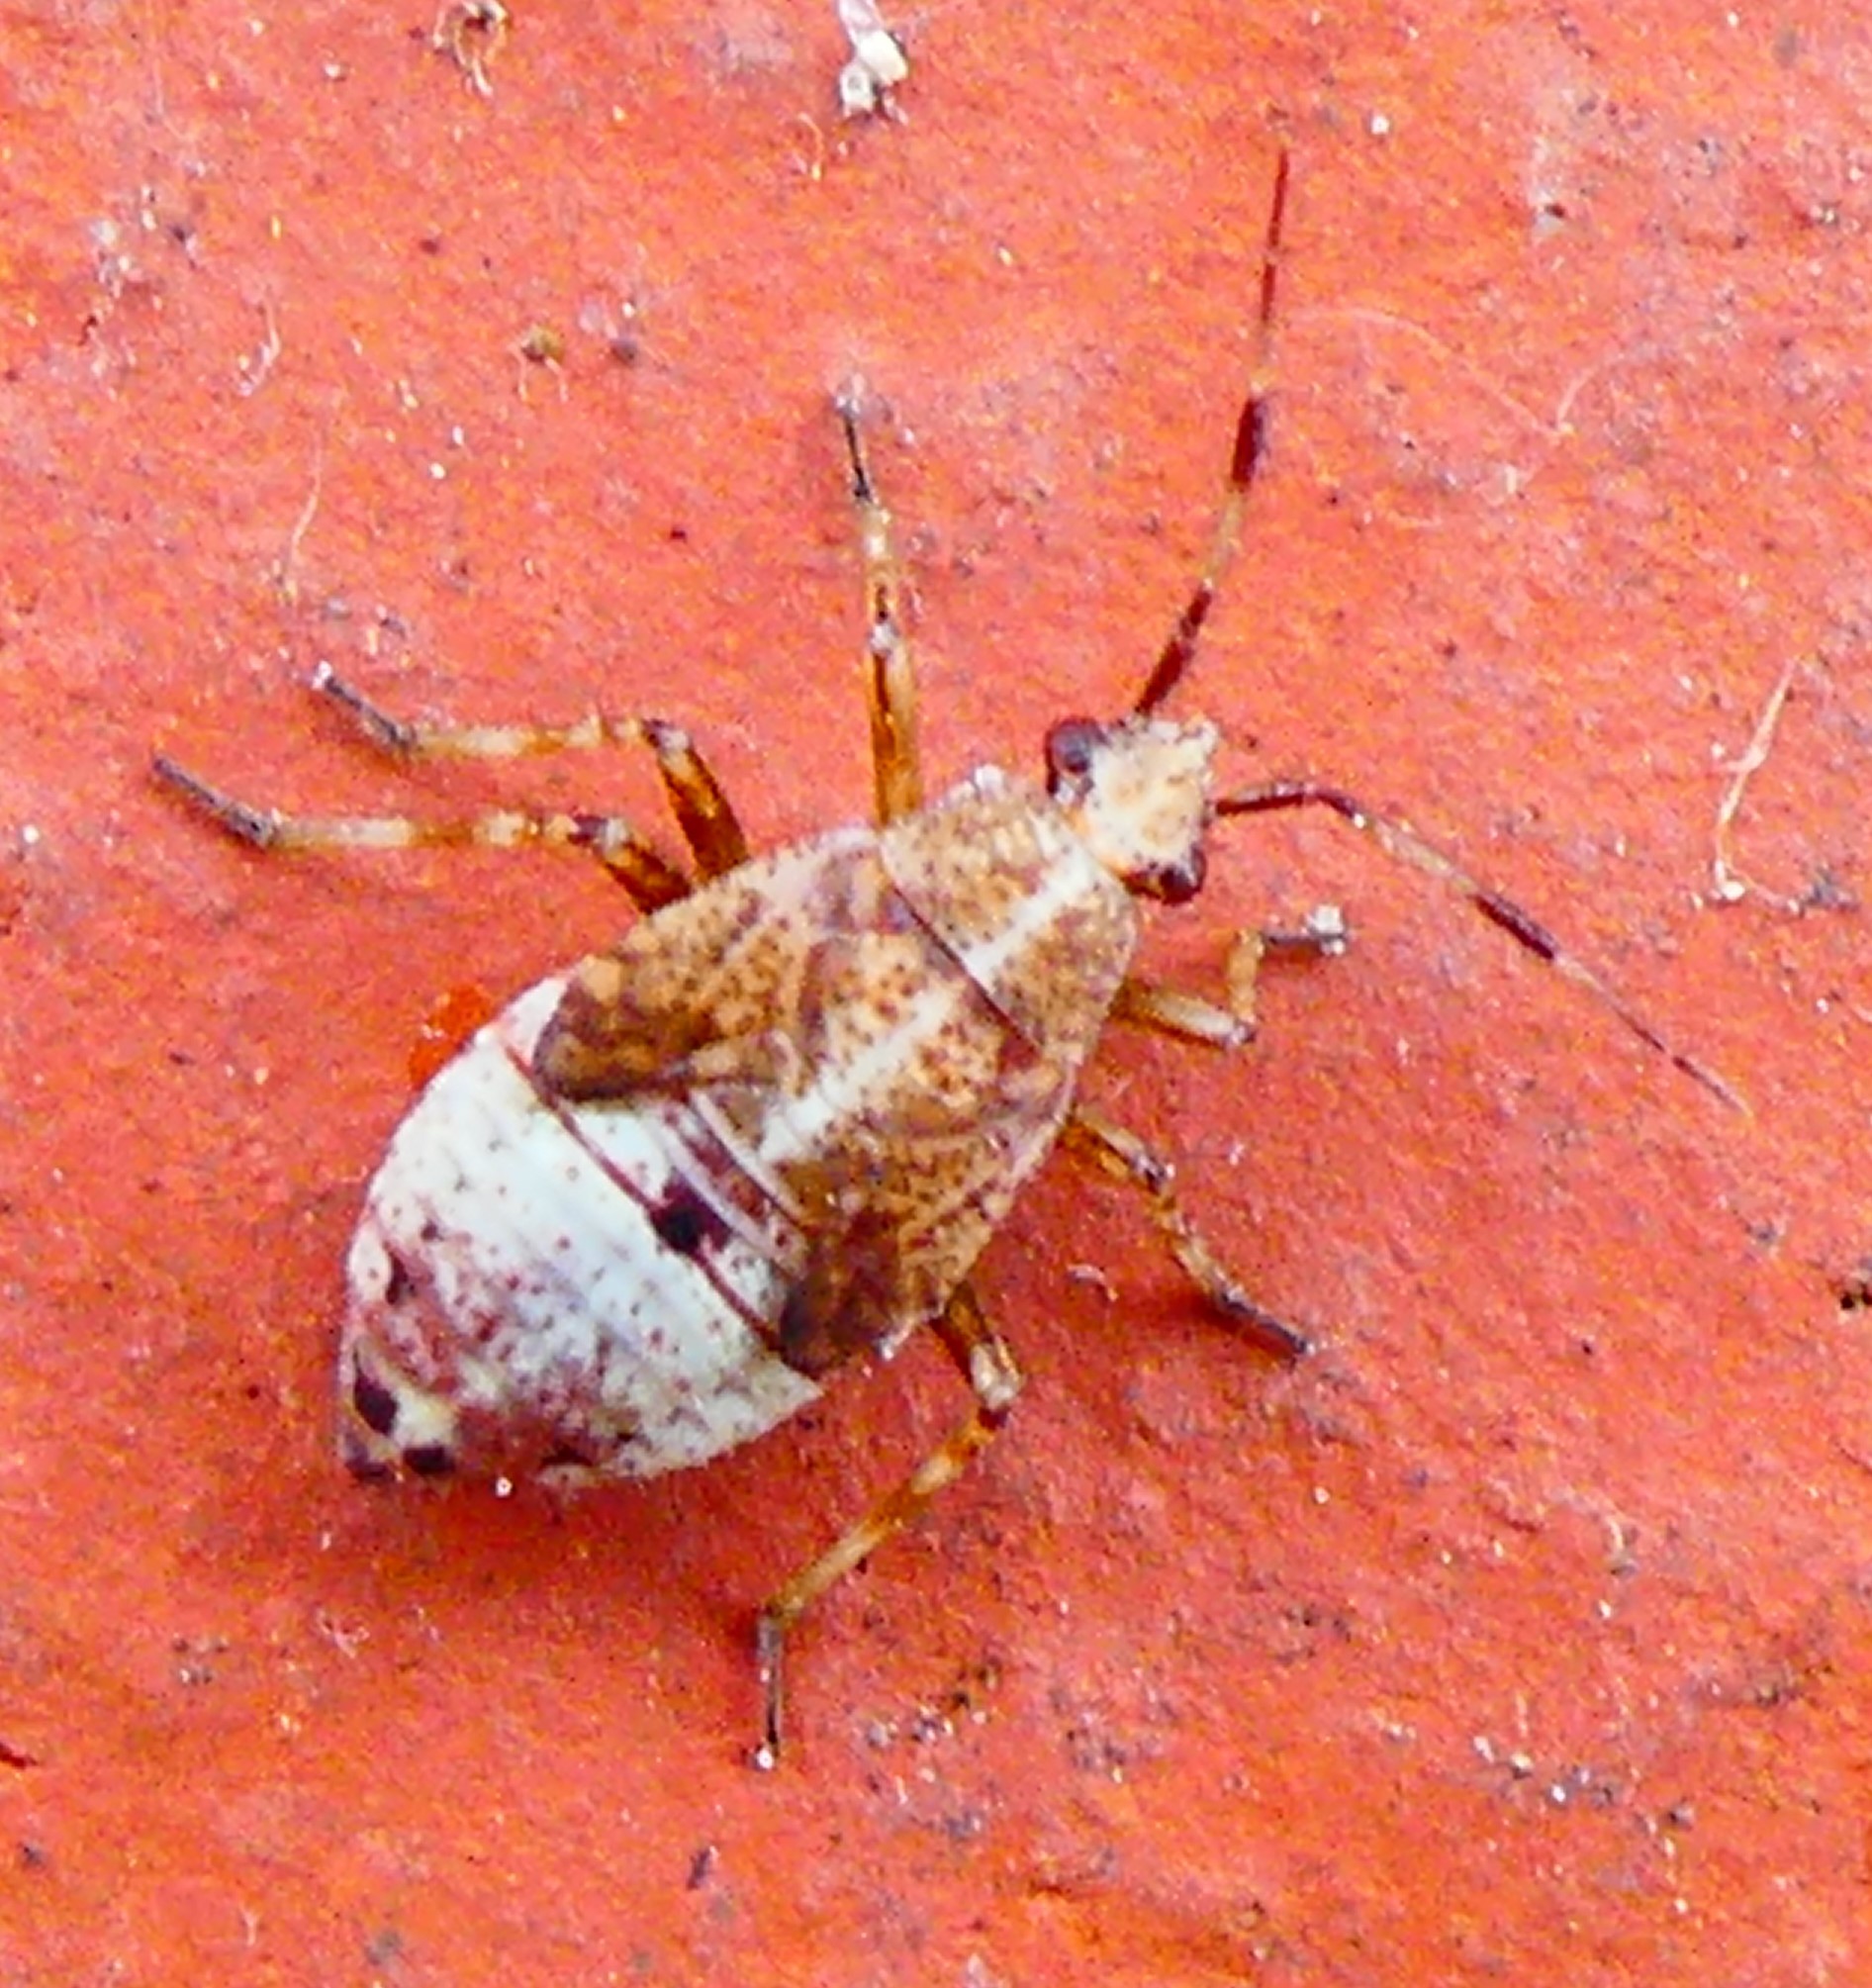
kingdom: Animalia
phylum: Arthropoda
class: Insecta
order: Hemiptera
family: Miridae
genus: Deraeocoris
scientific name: Deraeocoris flavilinea
